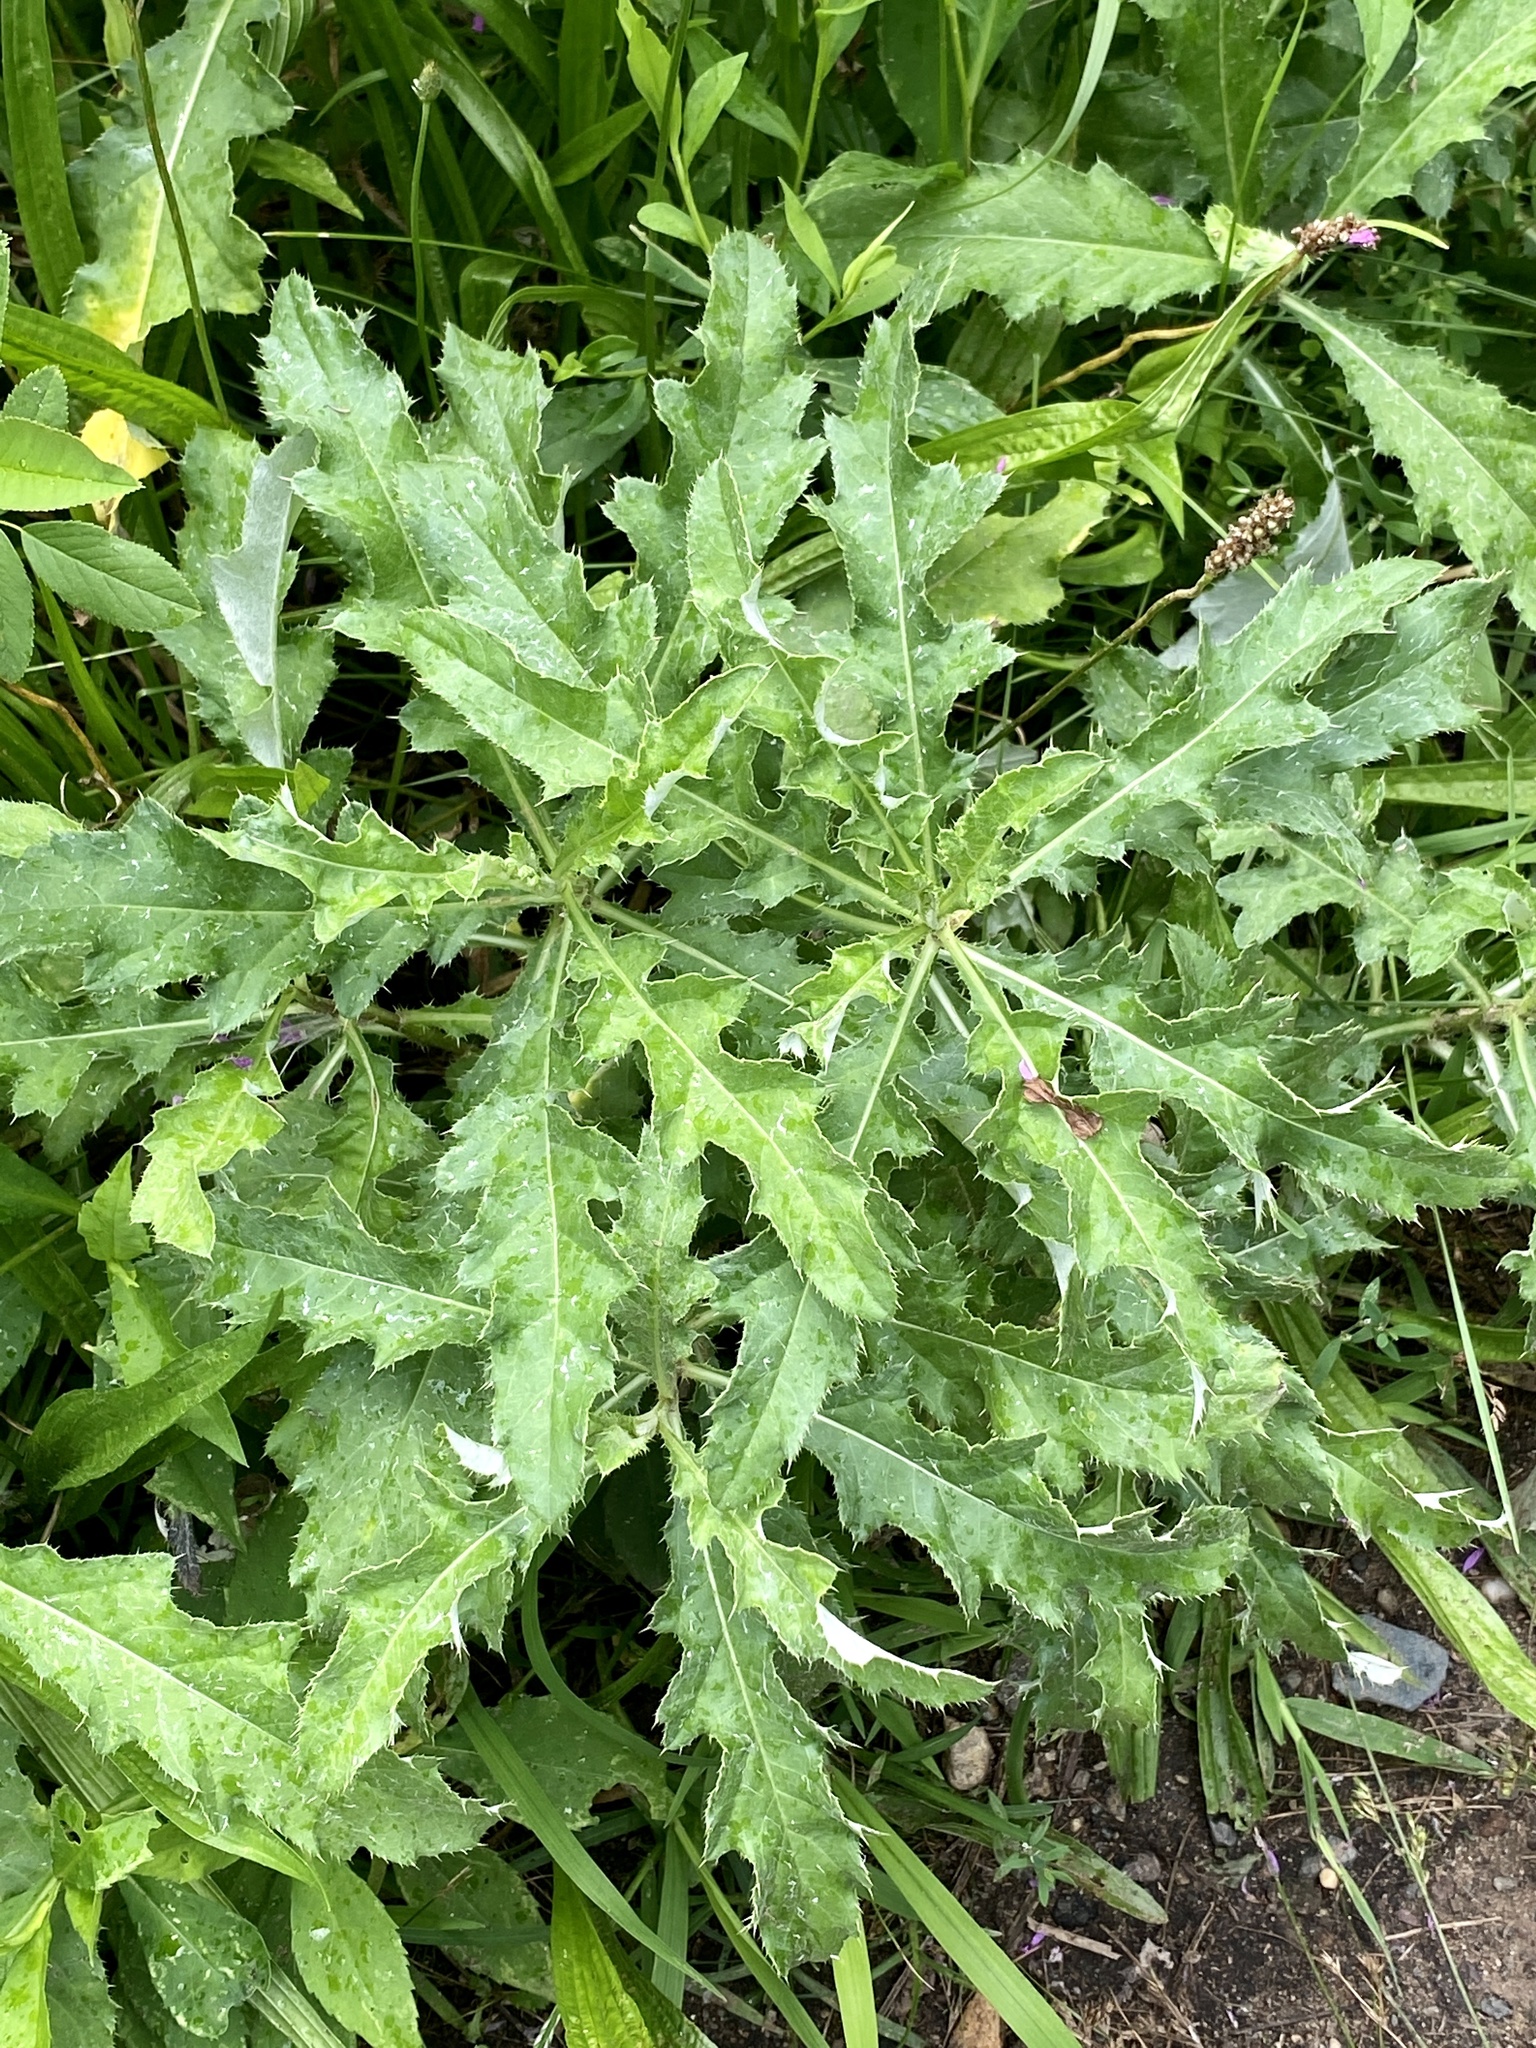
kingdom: Plantae
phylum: Tracheophyta
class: Magnoliopsida
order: Asterales
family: Asteraceae
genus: Cirsium
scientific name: Cirsium arvense
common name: Creeping thistle
